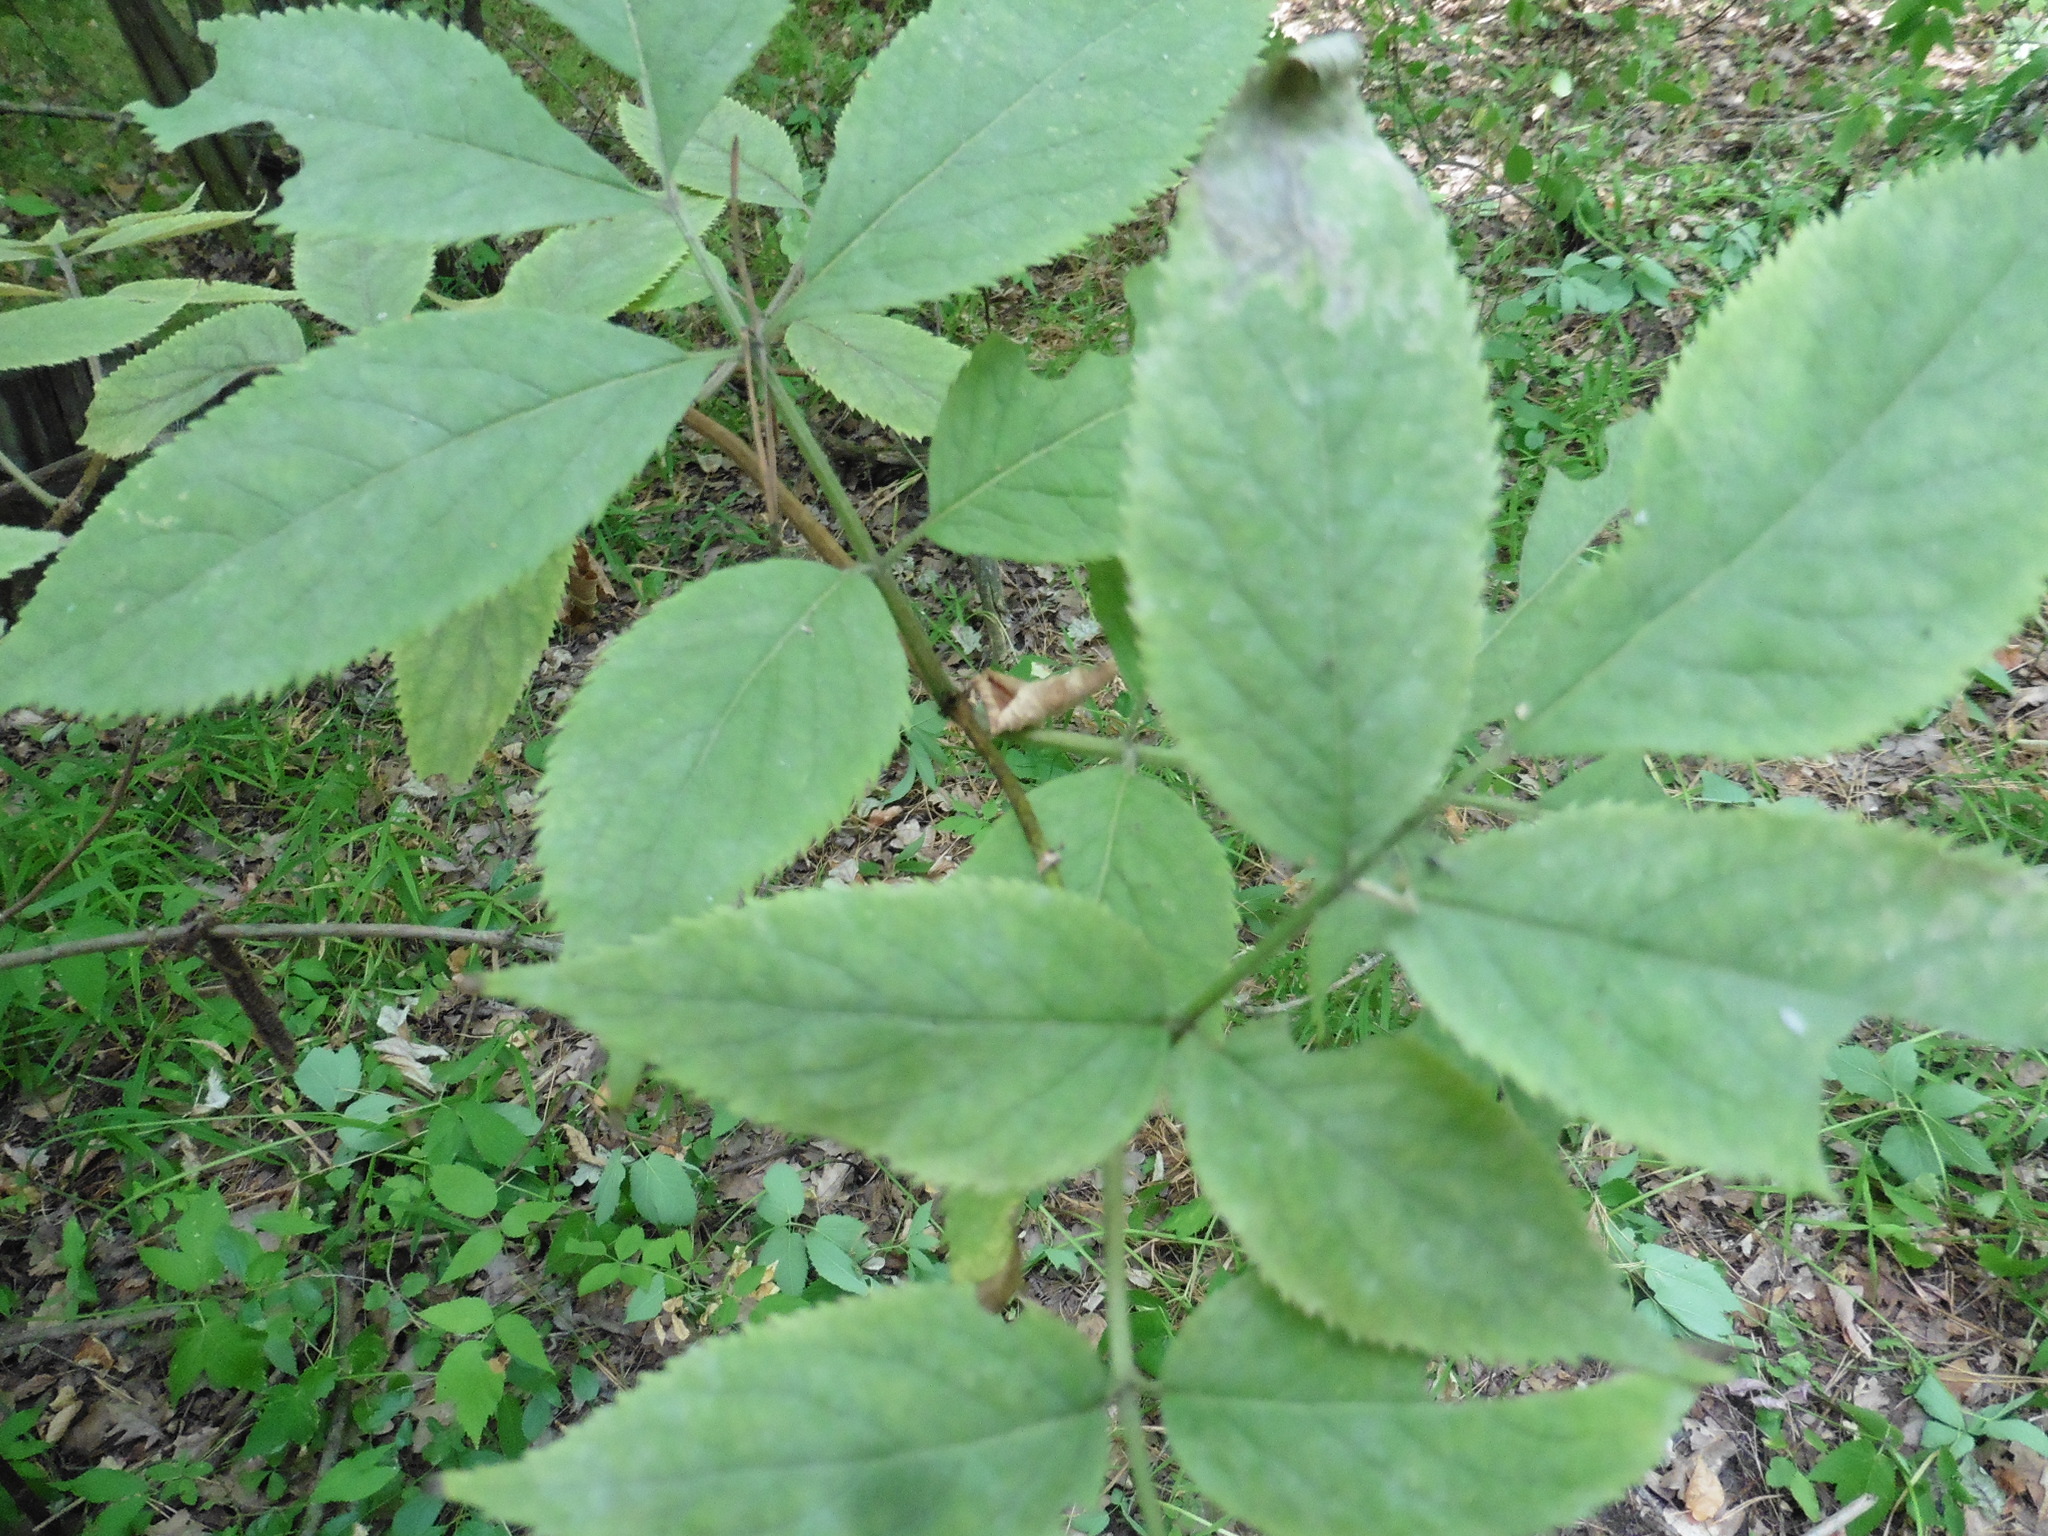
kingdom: Plantae
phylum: Tracheophyta
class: Magnoliopsida
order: Dipsacales
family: Viburnaceae
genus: Sambucus
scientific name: Sambucus racemosa
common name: Red-berried elder
